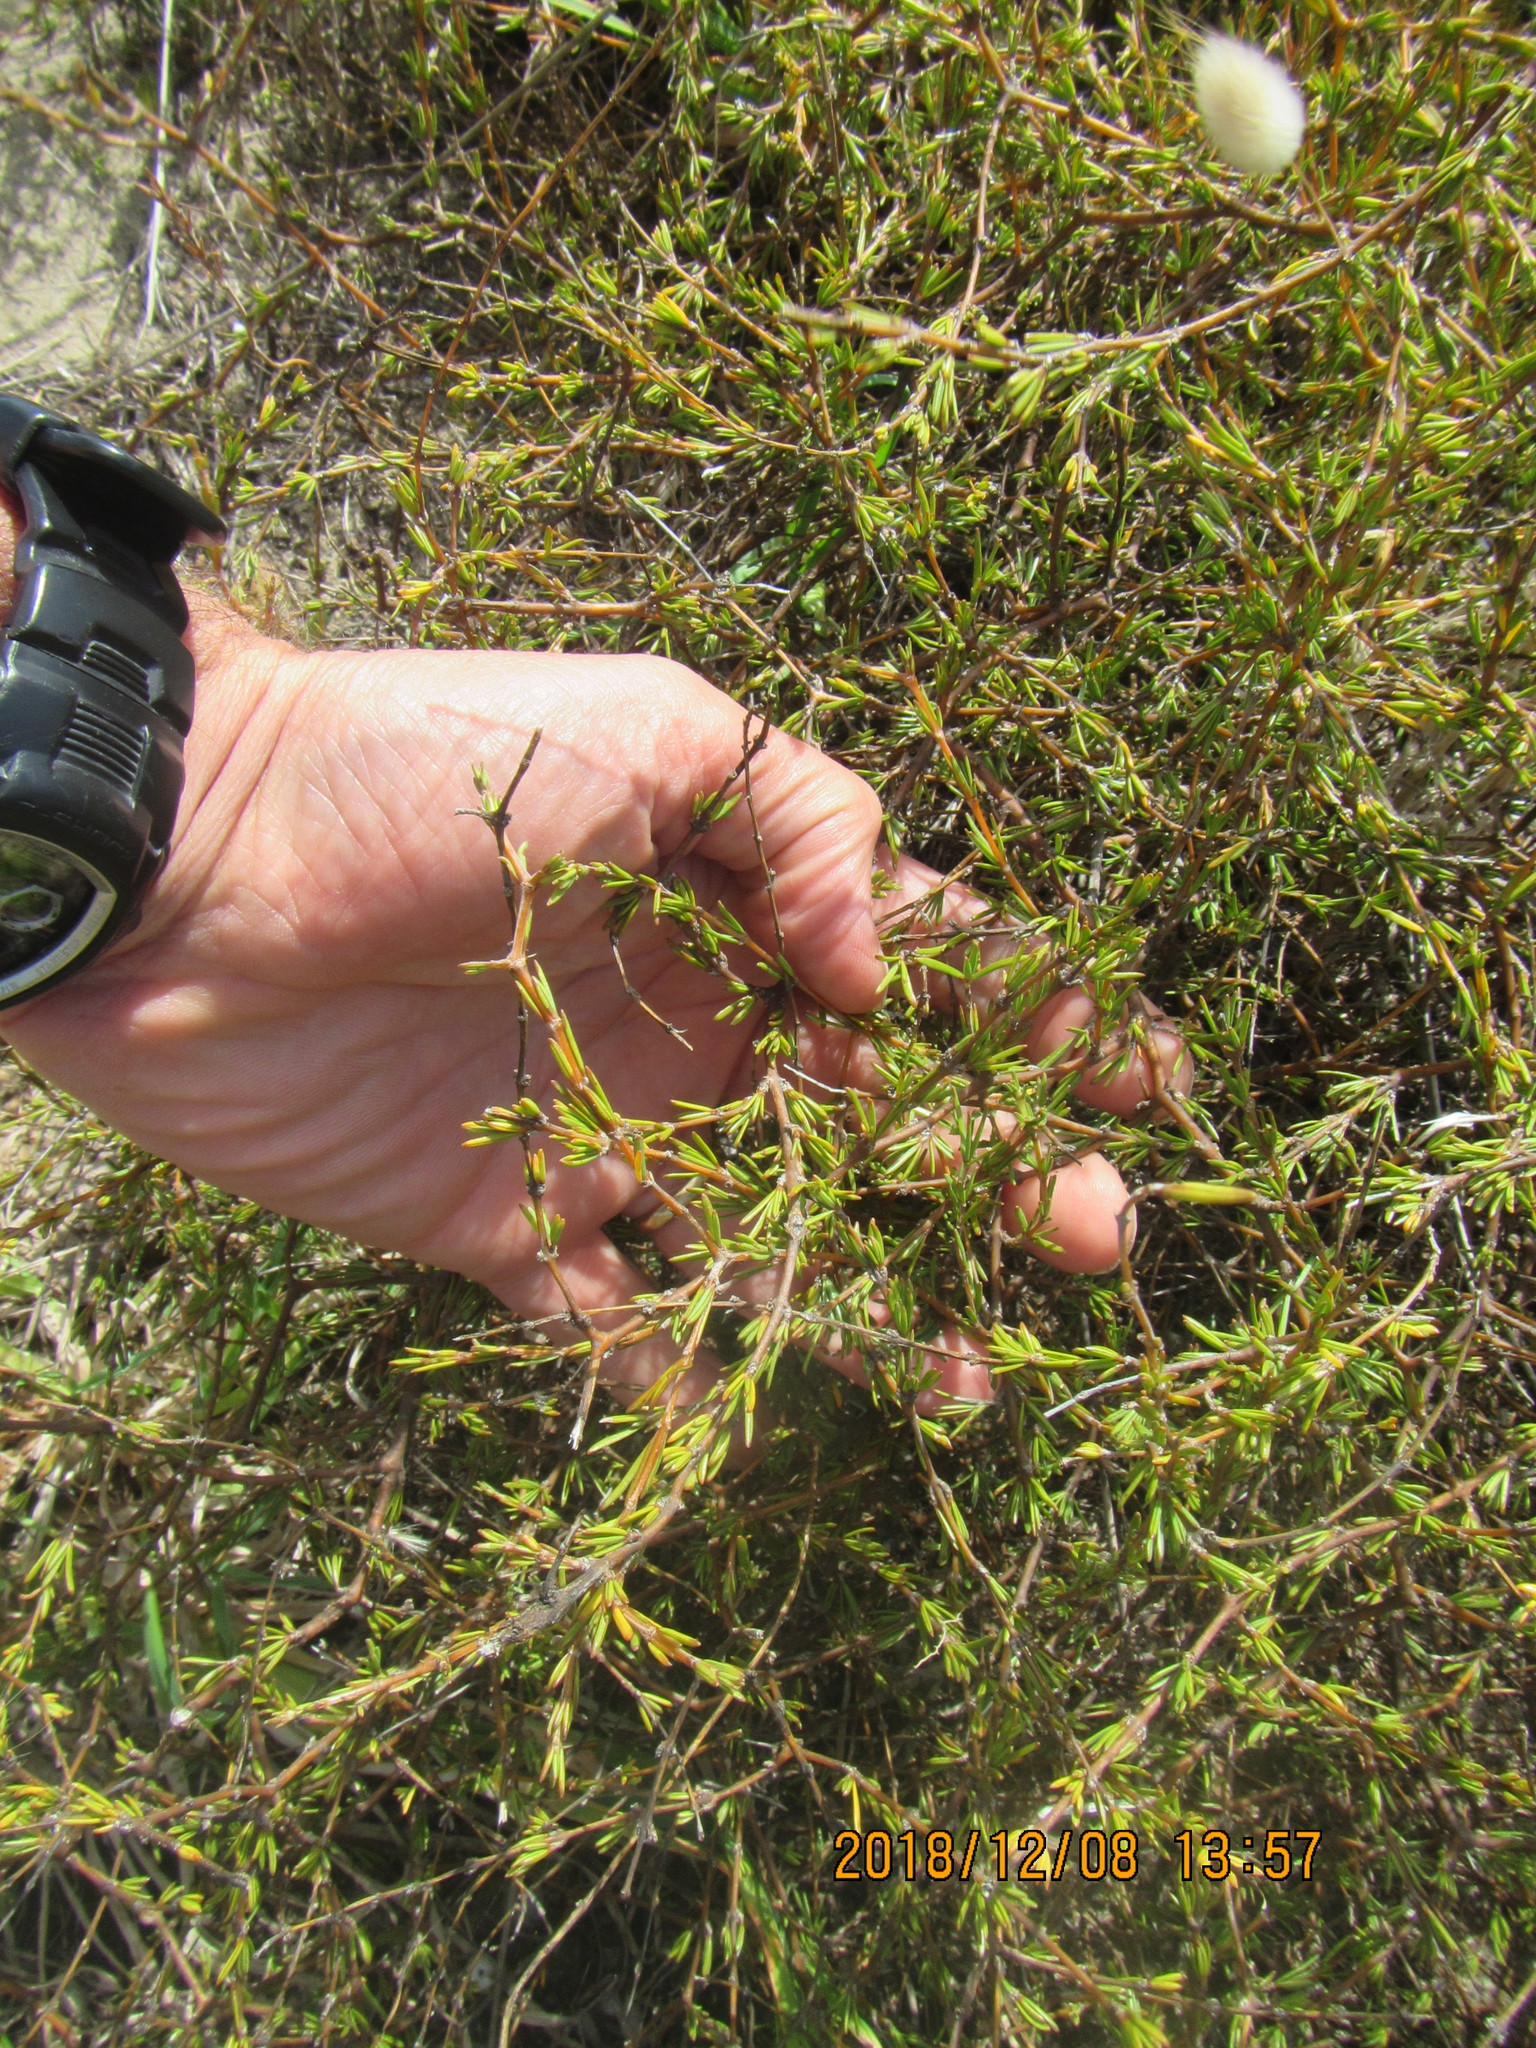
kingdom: Plantae
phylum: Tracheophyta
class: Magnoliopsida
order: Gentianales
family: Rubiaceae
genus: Coprosma
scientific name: Coprosma acerosa
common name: Sand coprosma
